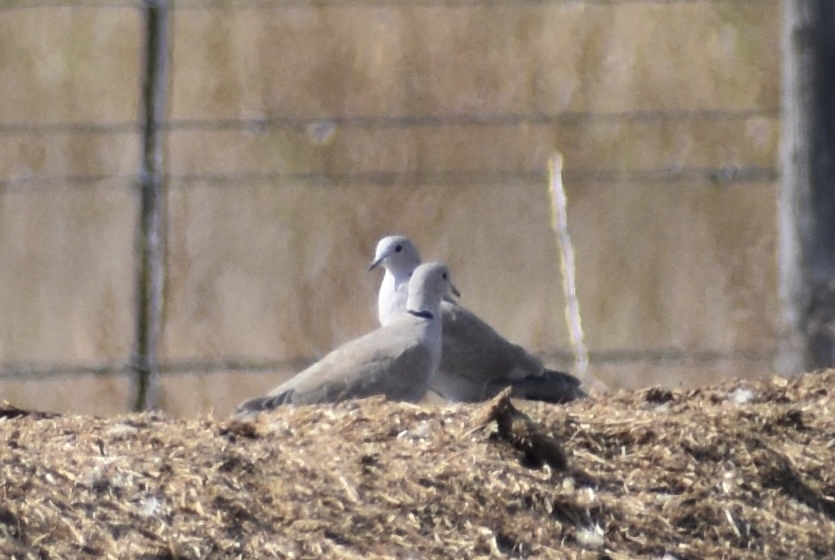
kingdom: Animalia
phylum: Chordata
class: Aves
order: Columbiformes
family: Columbidae
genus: Streptopelia
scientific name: Streptopelia decaocto
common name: Eurasian collared dove
